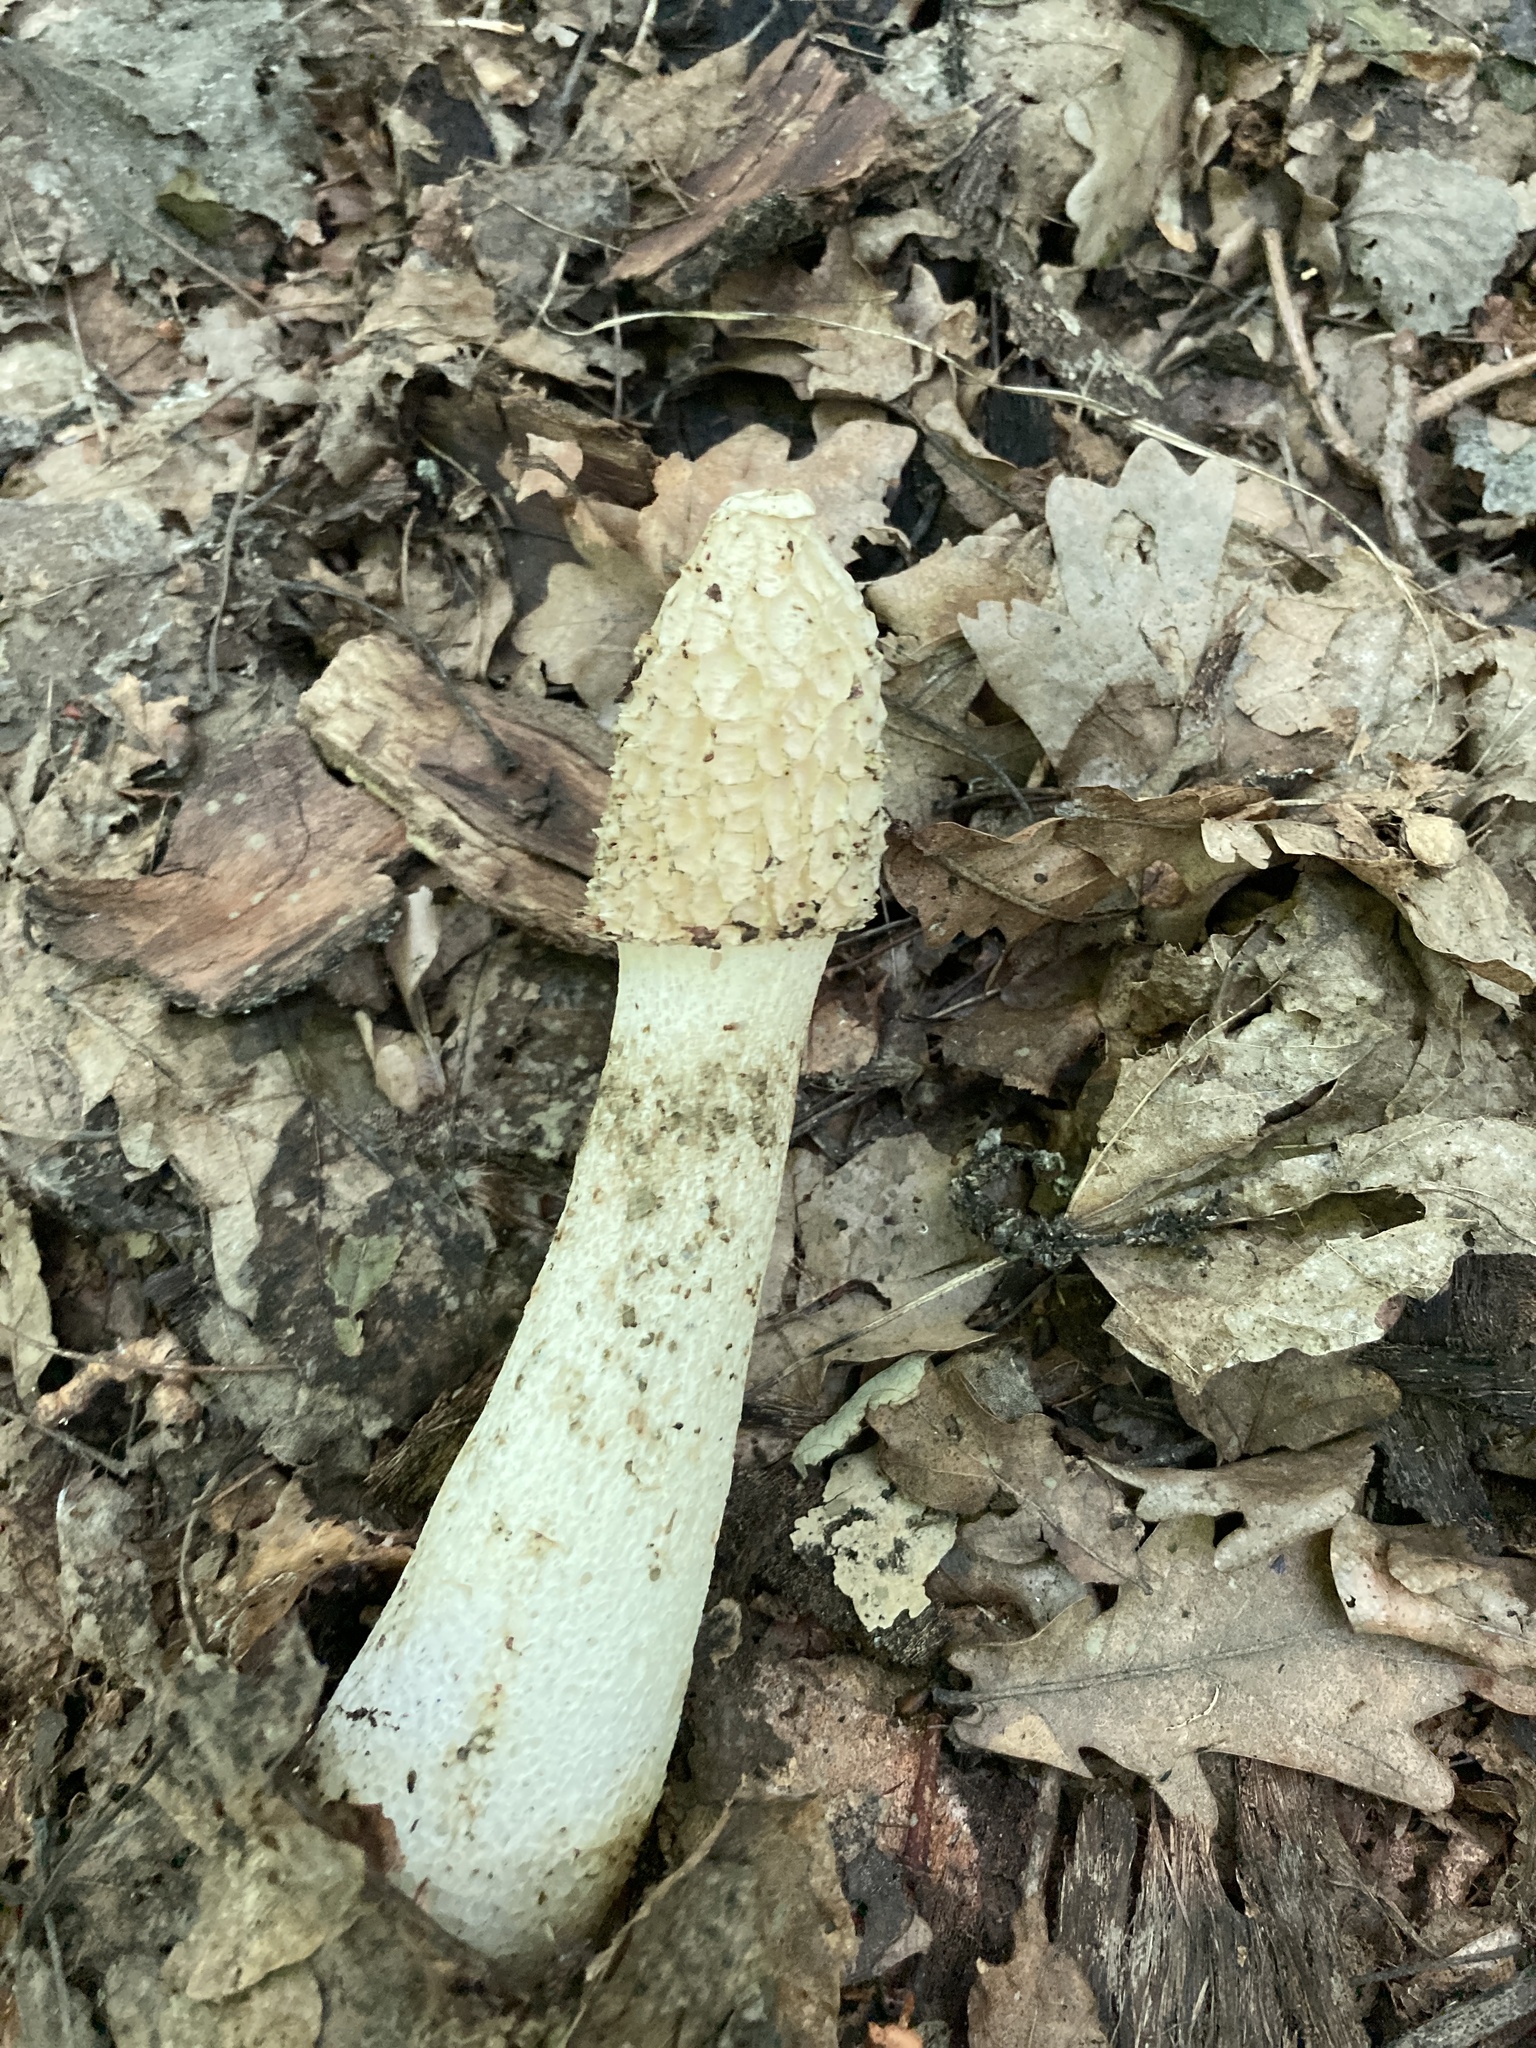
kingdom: Fungi
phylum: Basidiomycota
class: Agaricomycetes
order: Phallales
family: Phallaceae
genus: Phallus
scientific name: Phallus impudicus
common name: Common stinkhorn
